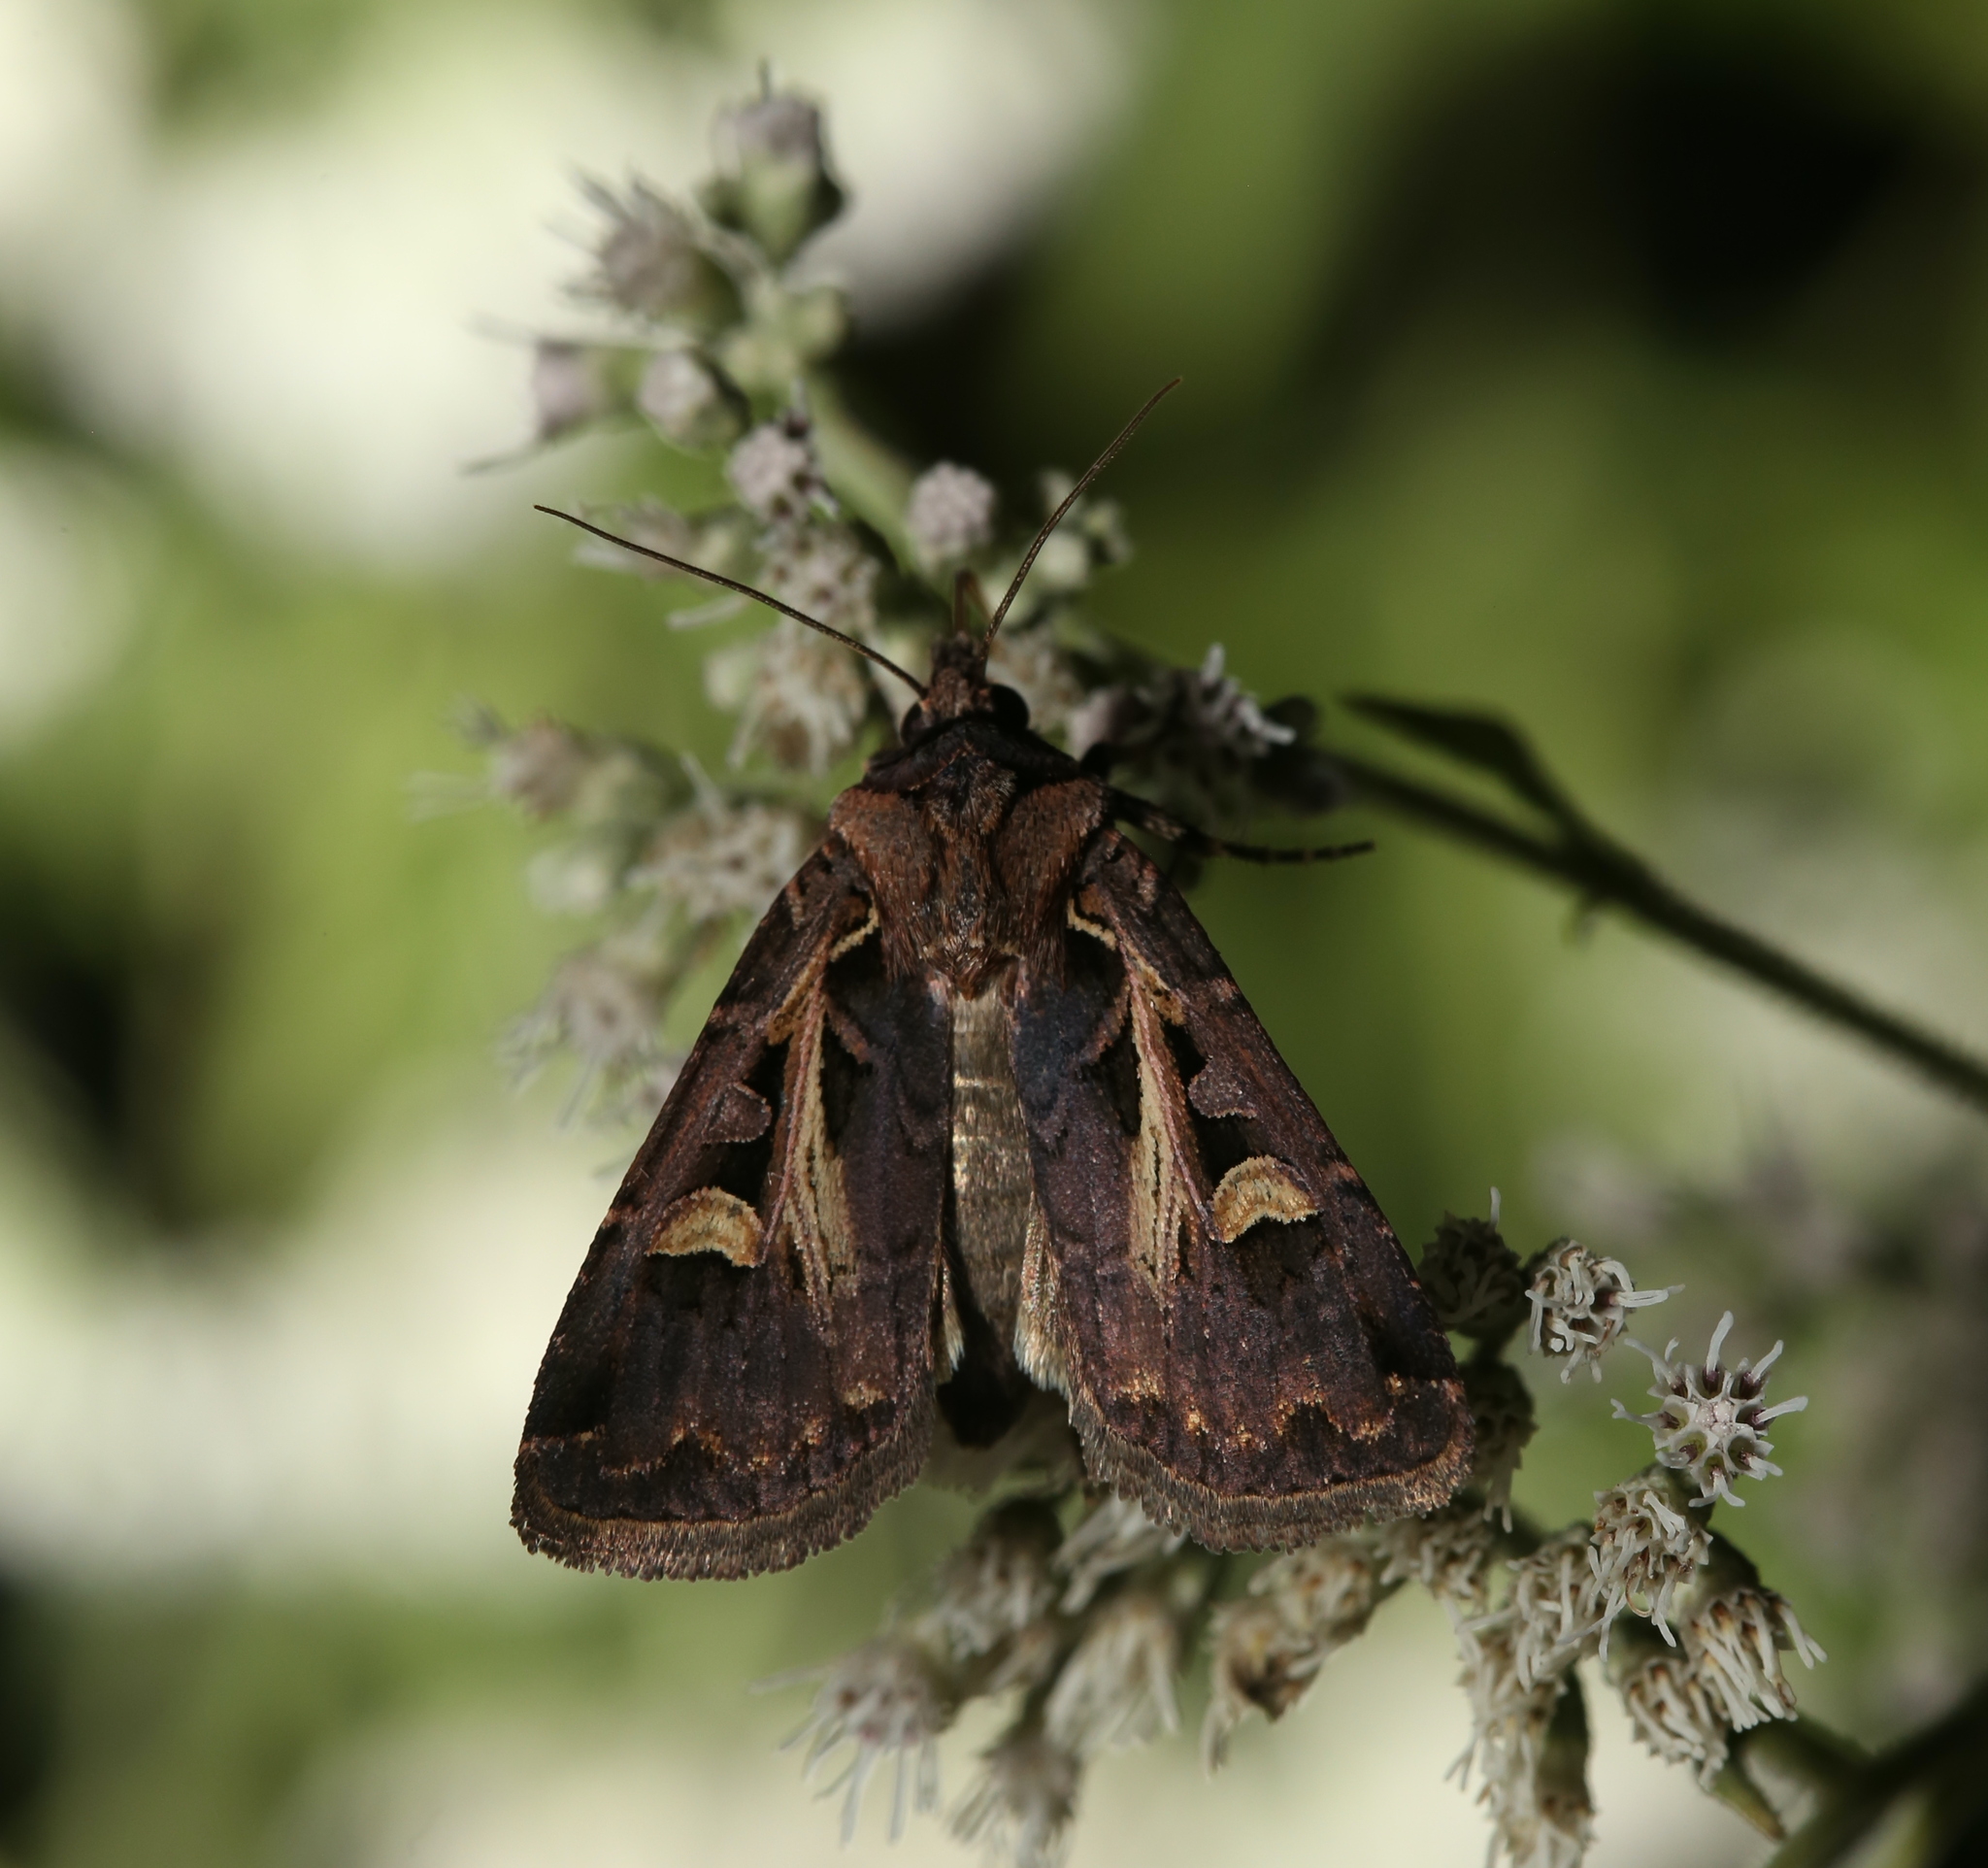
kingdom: Animalia
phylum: Arthropoda
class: Insecta
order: Lepidoptera
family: Noctuidae
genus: Feltia
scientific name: Feltia herilis
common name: Master's dart
